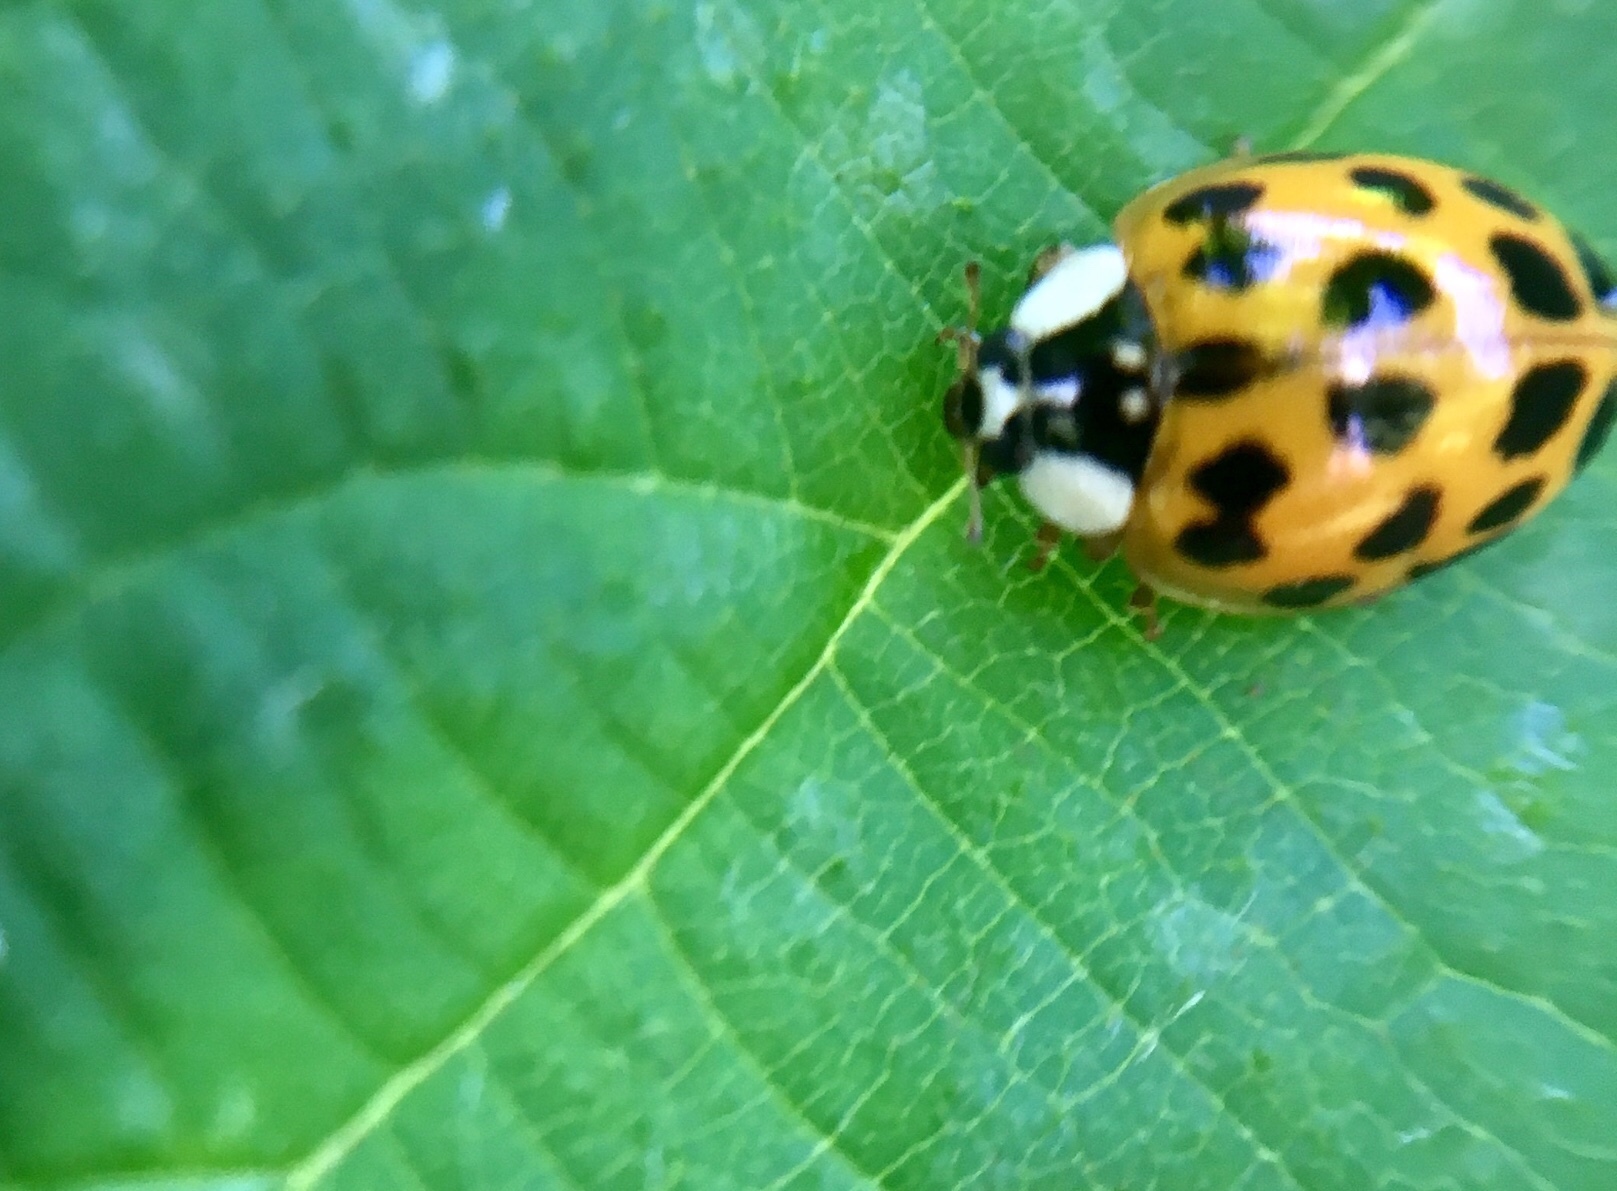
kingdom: Animalia
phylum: Arthropoda
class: Insecta
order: Coleoptera
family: Coccinellidae
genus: Harmonia
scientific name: Harmonia axyridis
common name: Harlequin ladybird
